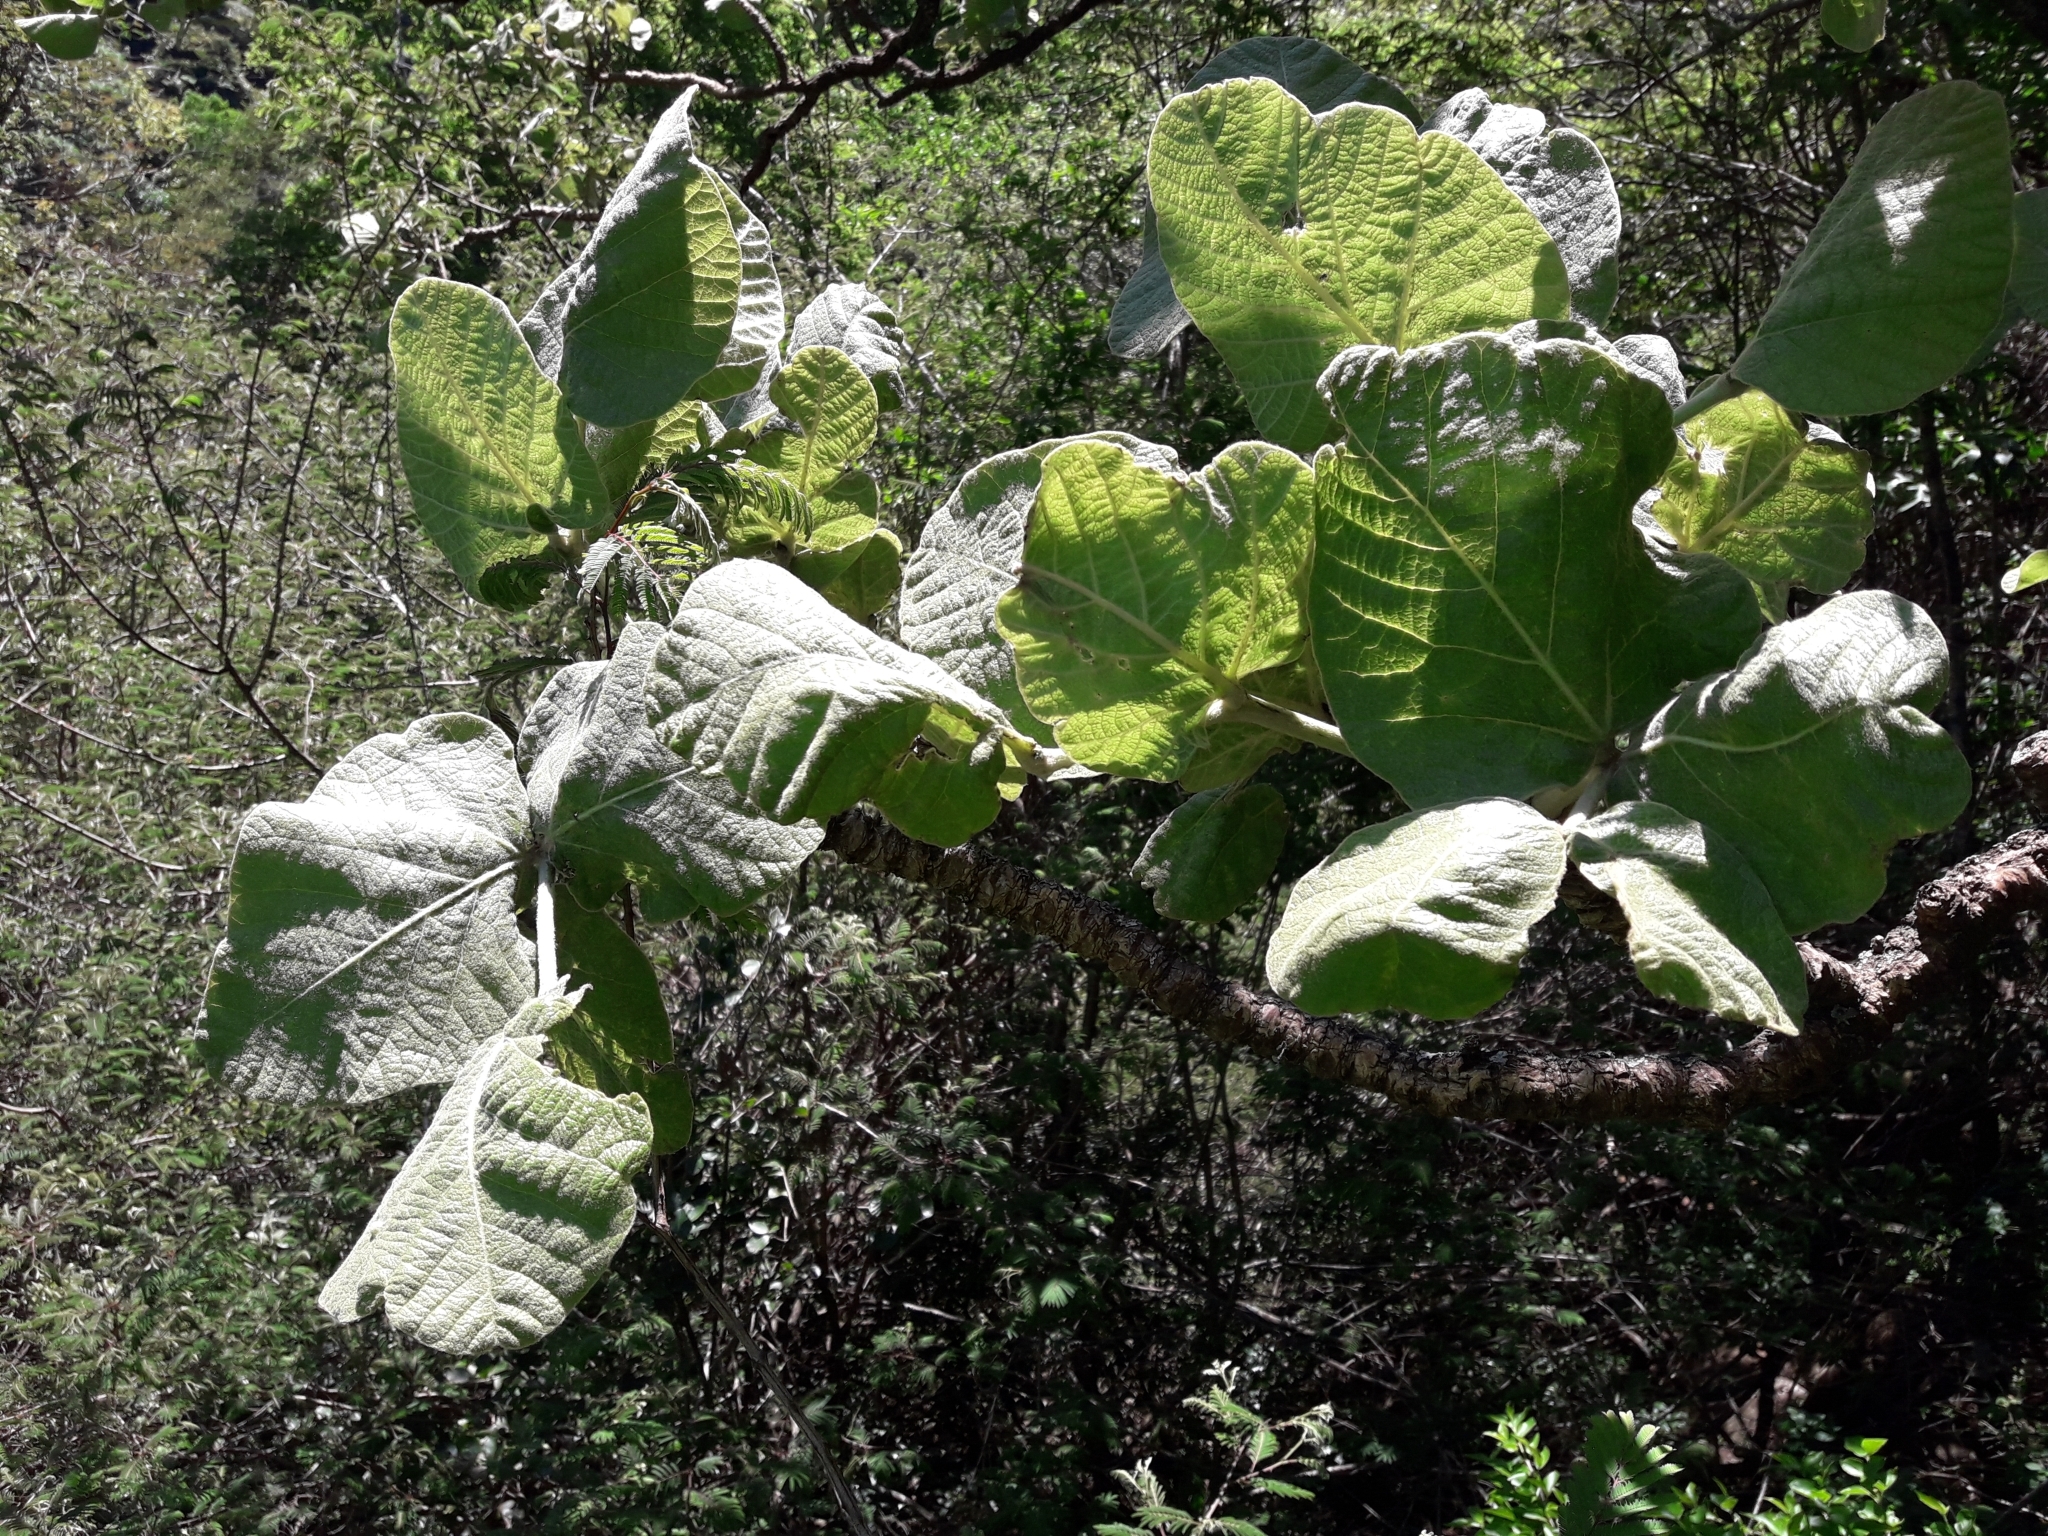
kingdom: Plantae
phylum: Tracheophyta
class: Magnoliopsida
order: Fabales
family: Fabaceae
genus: Erythrina
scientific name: Erythrina latissima
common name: Broad-leaved coral tree
